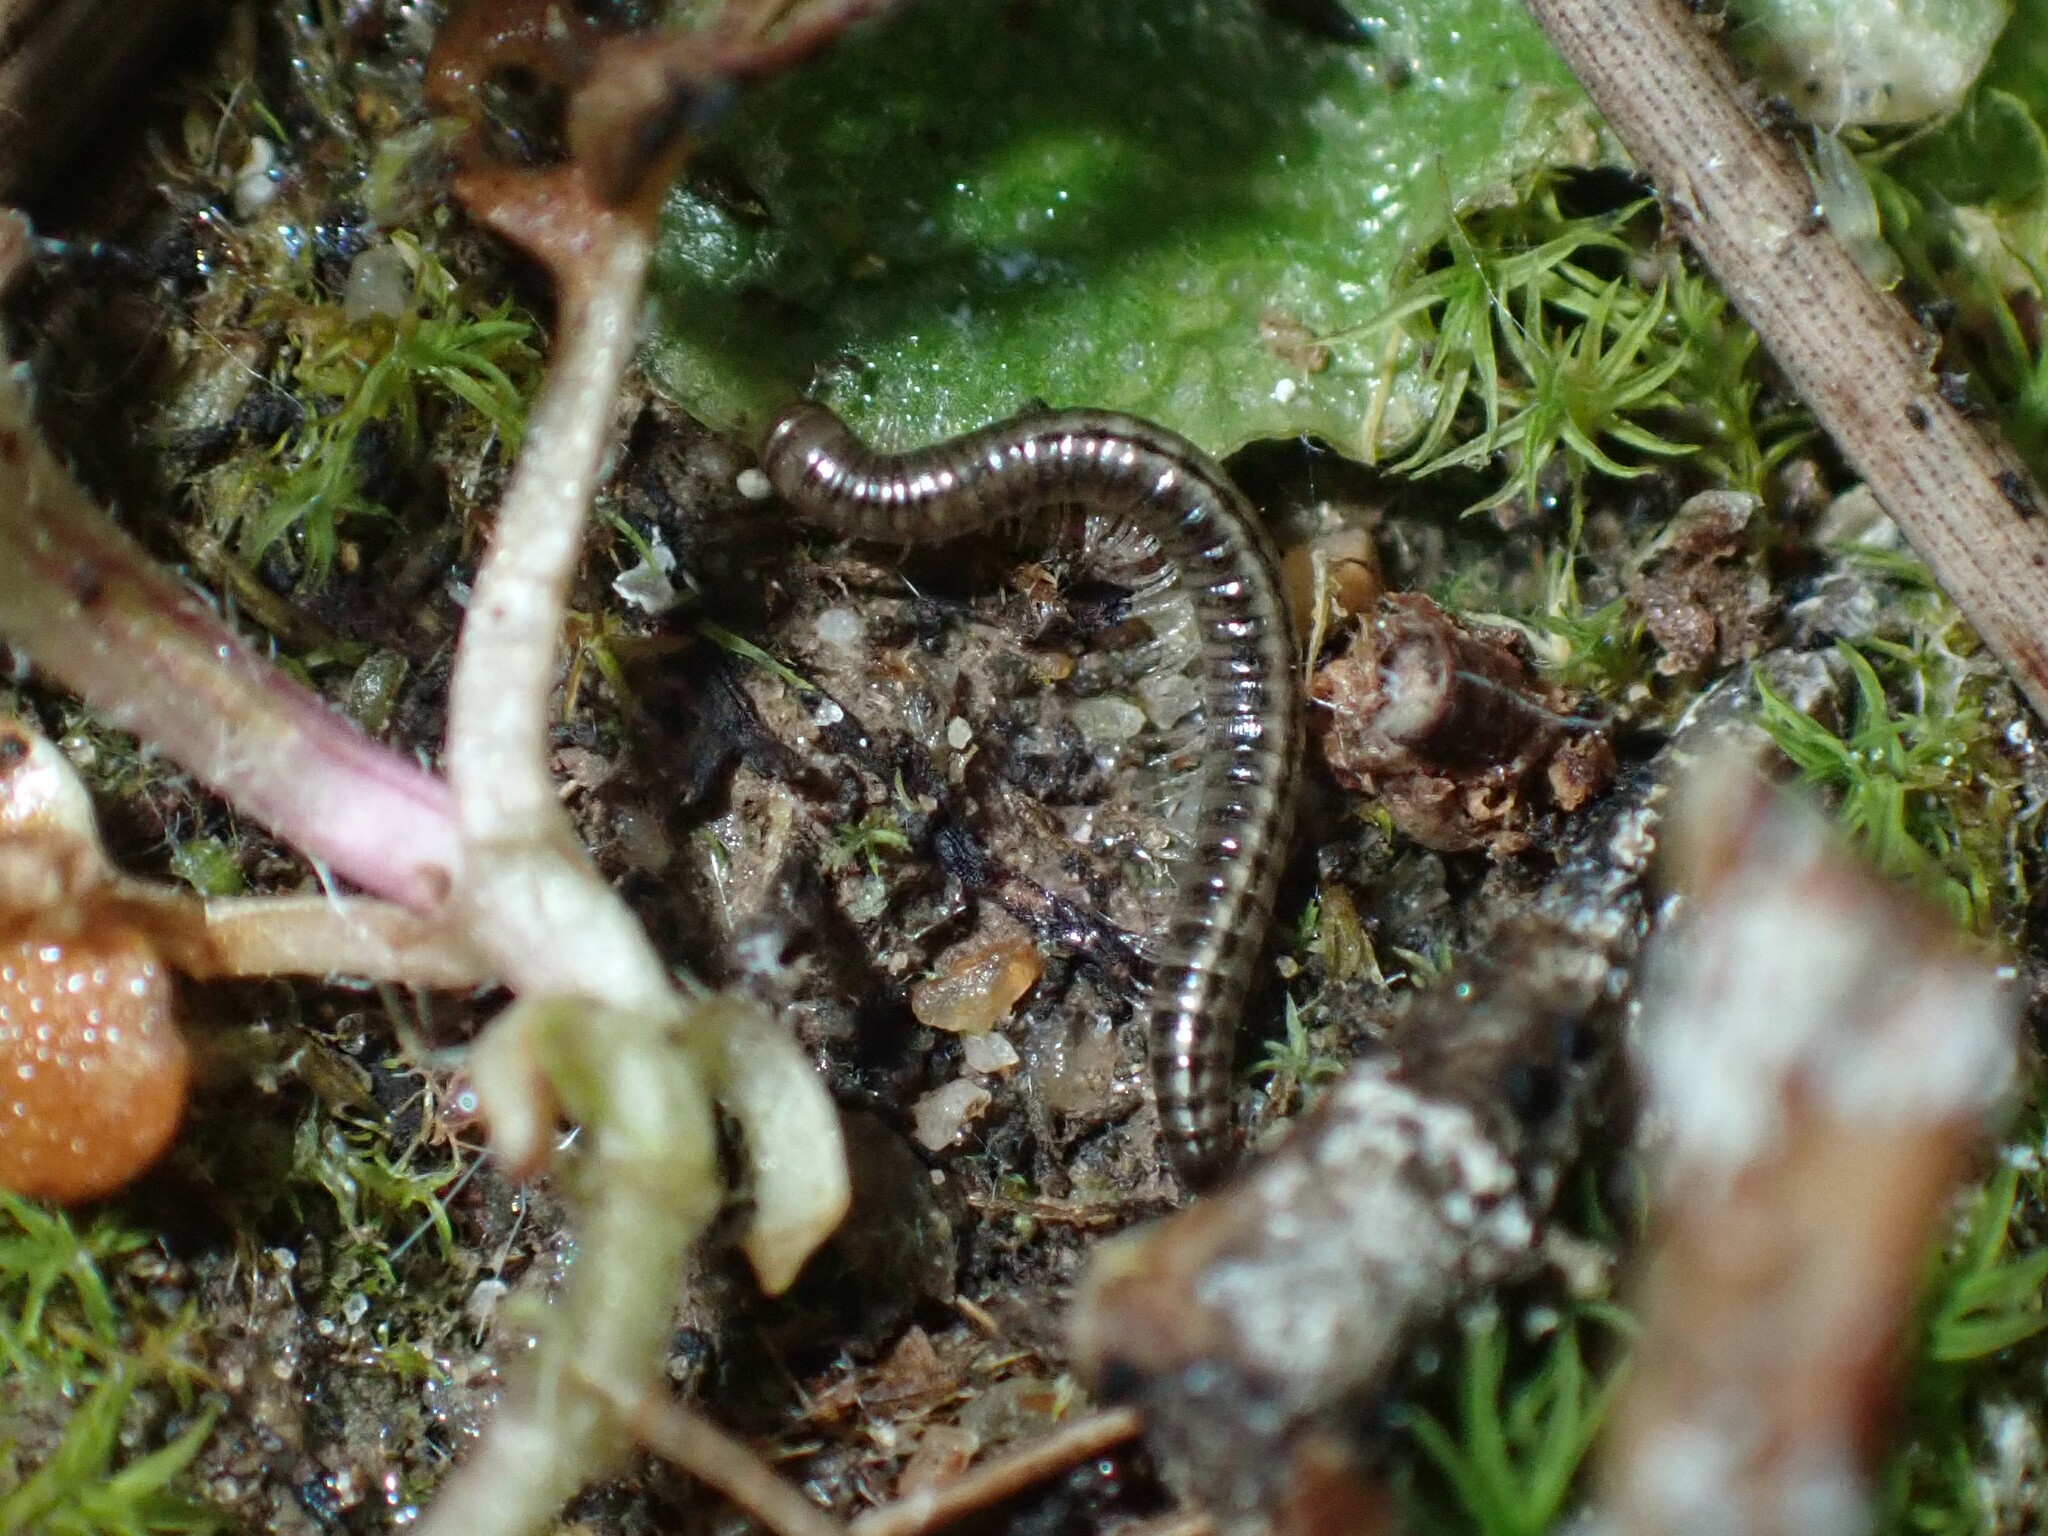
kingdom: Animalia
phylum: Arthropoda
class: Diplopoda
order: Julida
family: Julidae
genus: Brachyiulus
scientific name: Brachyiulus pusillus
